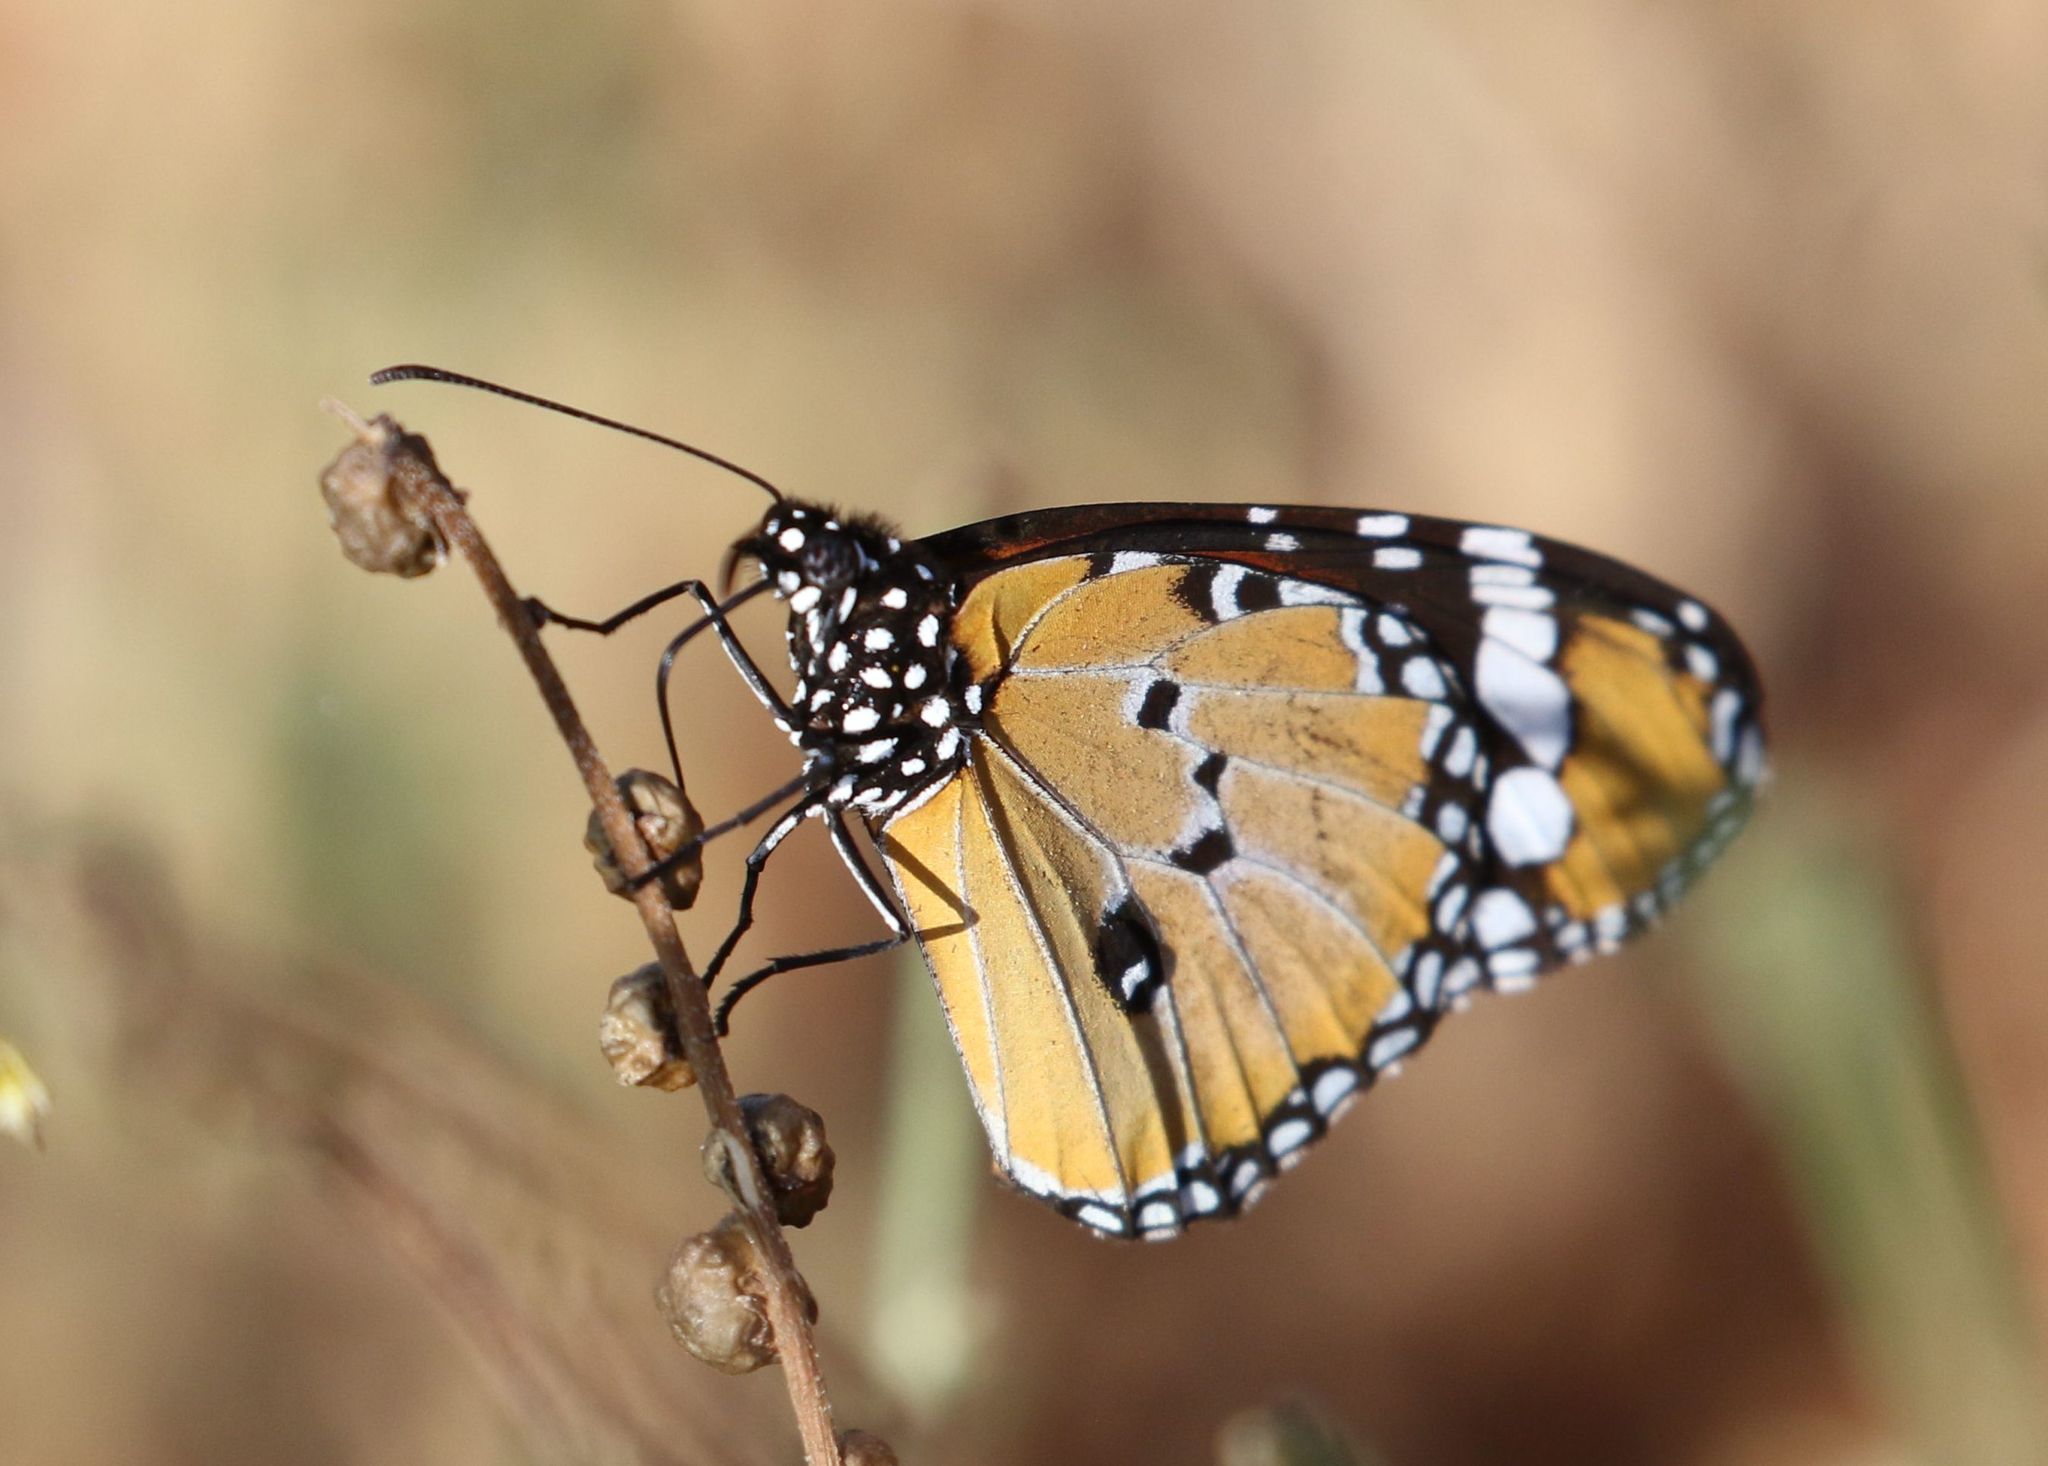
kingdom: Animalia
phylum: Arthropoda
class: Insecta
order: Lepidoptera
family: Nymphalidae
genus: Danaus
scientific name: Danaus chrysippus
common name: Plain tiger
